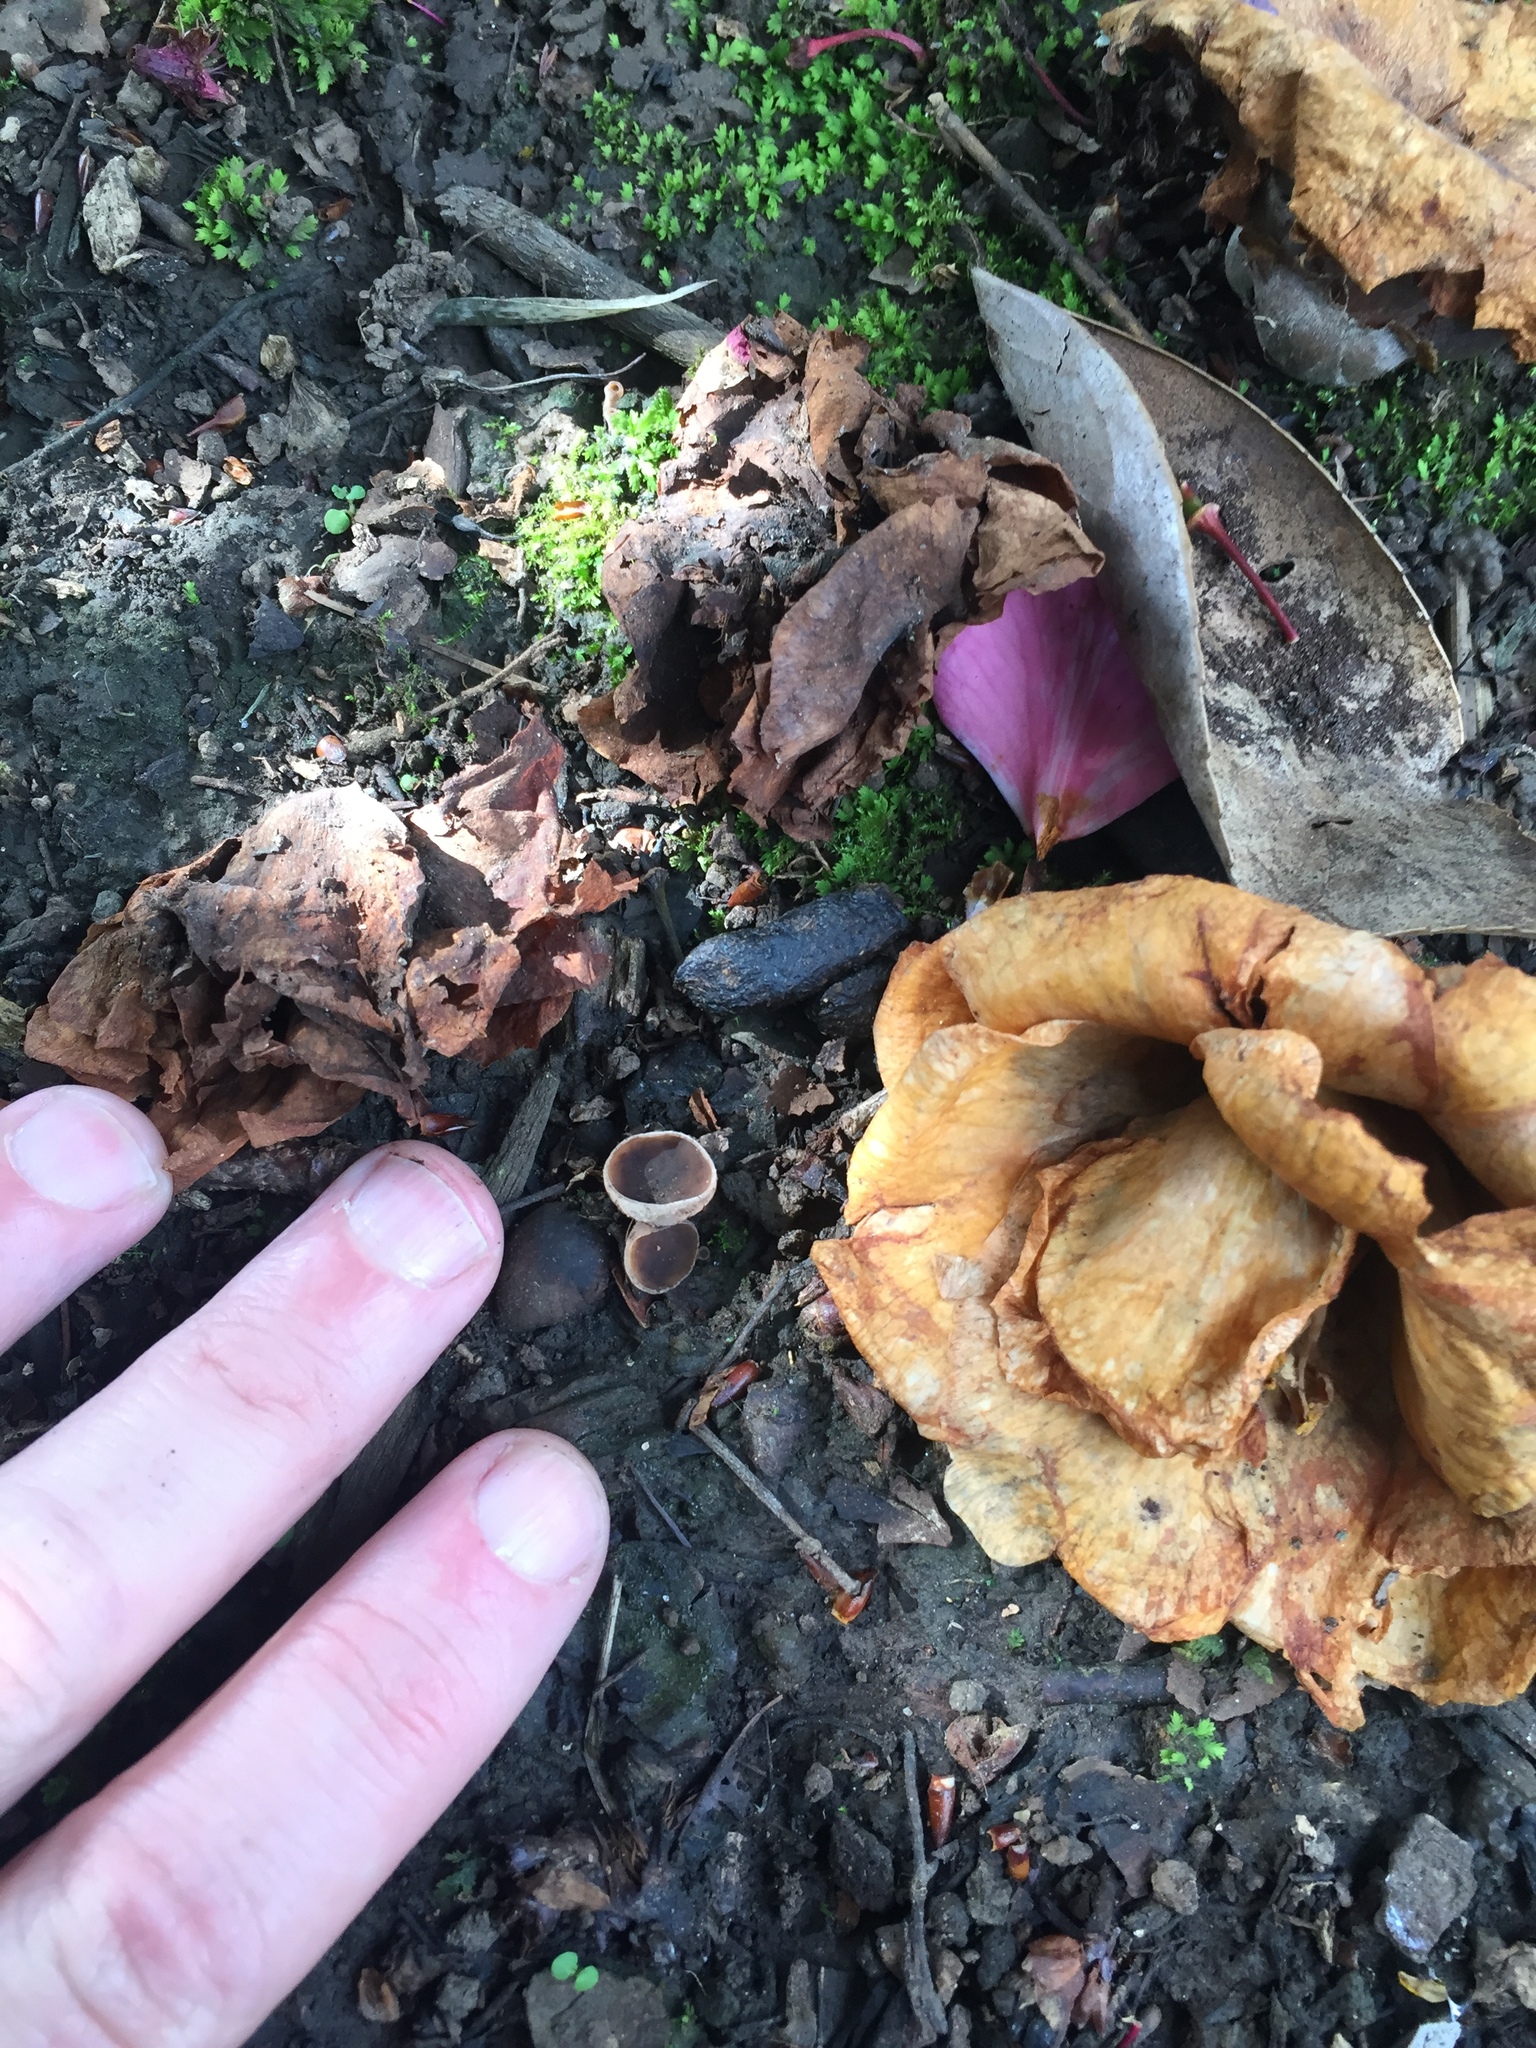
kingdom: Fungi
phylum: Ascomycota
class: Leotiomycetes
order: Helotiales
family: Sclerotiniaceae
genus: Ciborinia
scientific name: Ciborinia camelliae
